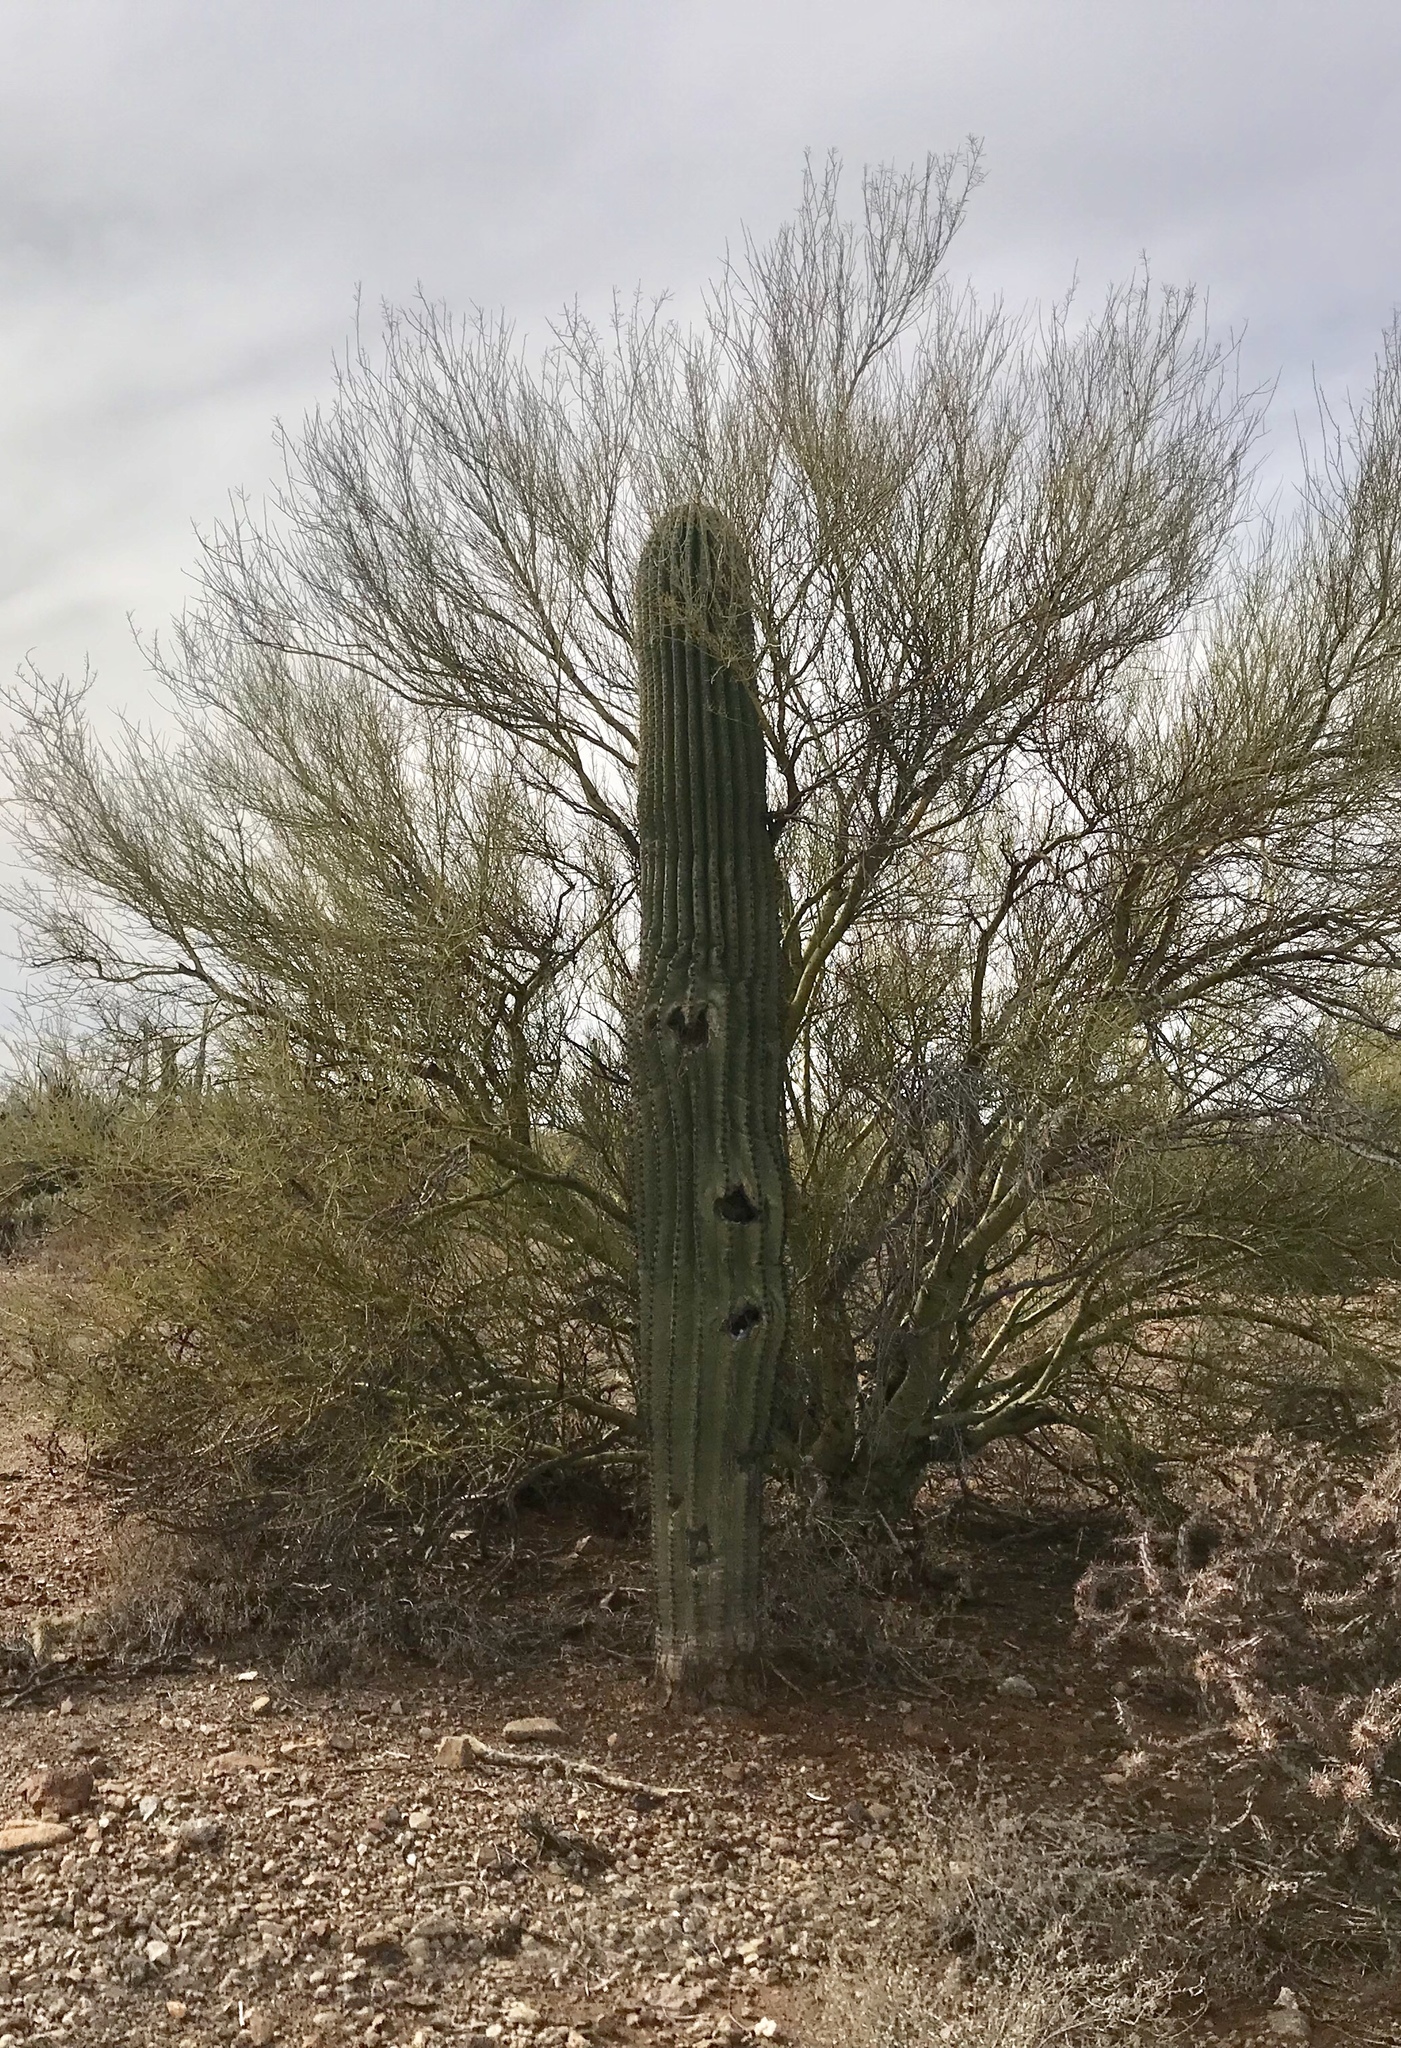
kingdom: Plantae
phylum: Tracheophyta
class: Magnoliopsida
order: Caryophyllales
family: Cactaceae
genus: Carnegiea
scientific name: Carnegiea gigantea
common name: Saguaro
